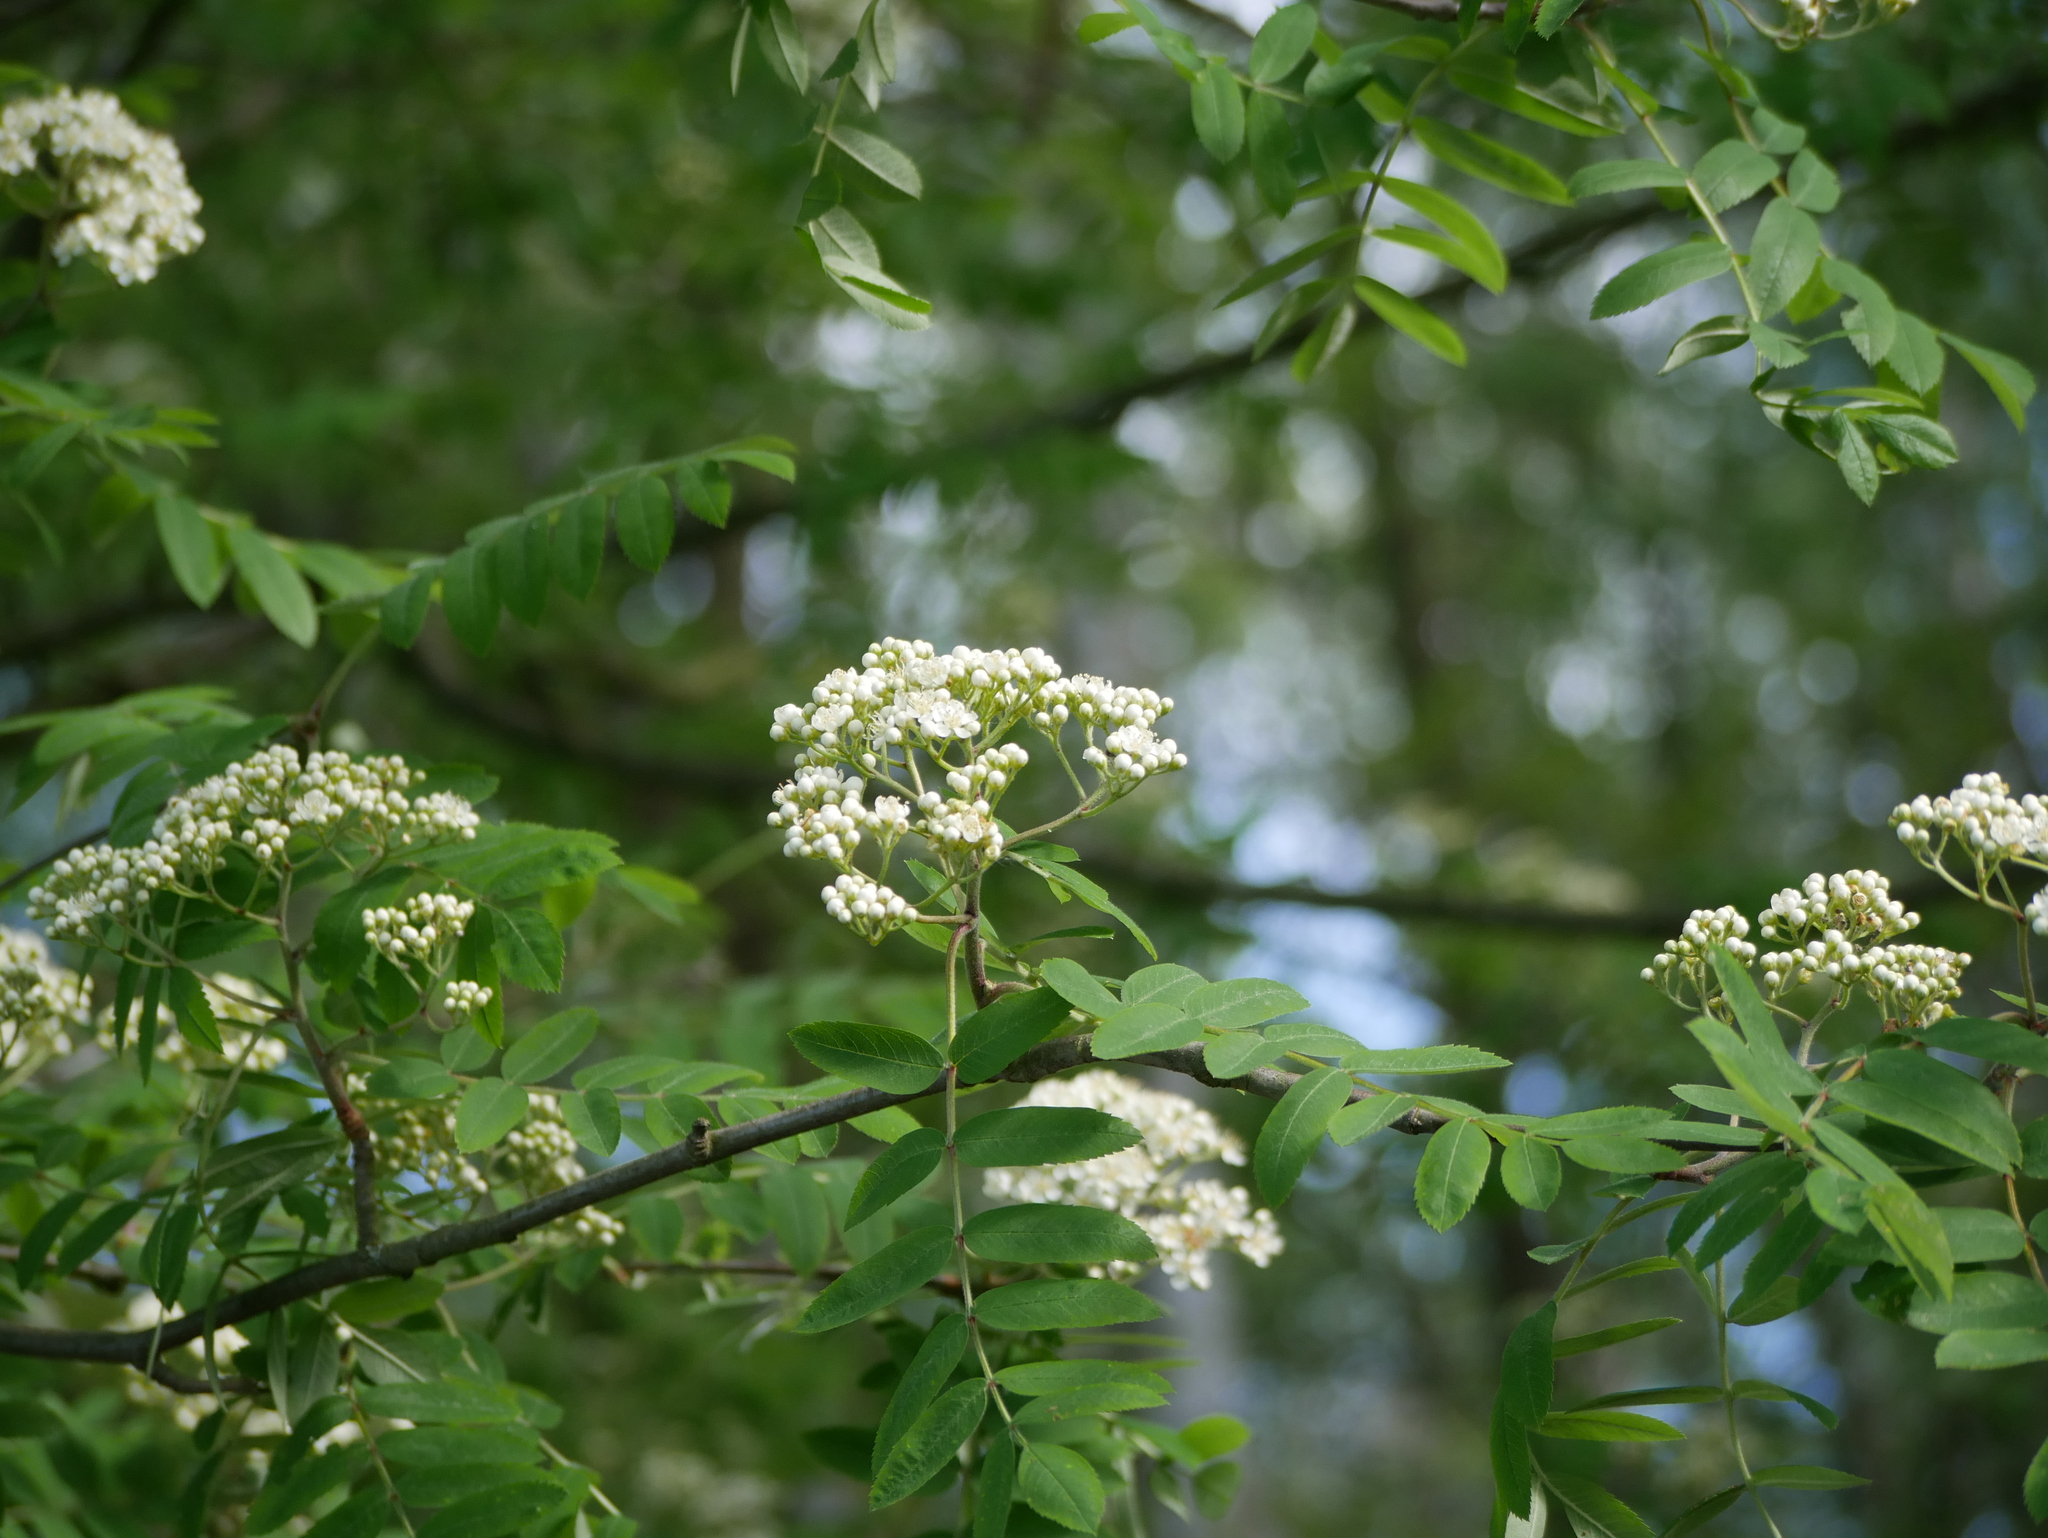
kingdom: Plantae
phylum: Tracheophyta
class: Magnoliopsida
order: Rosales
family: Rosaceae
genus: Sorbus
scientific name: Sorbus aucuparia
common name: Rowan
